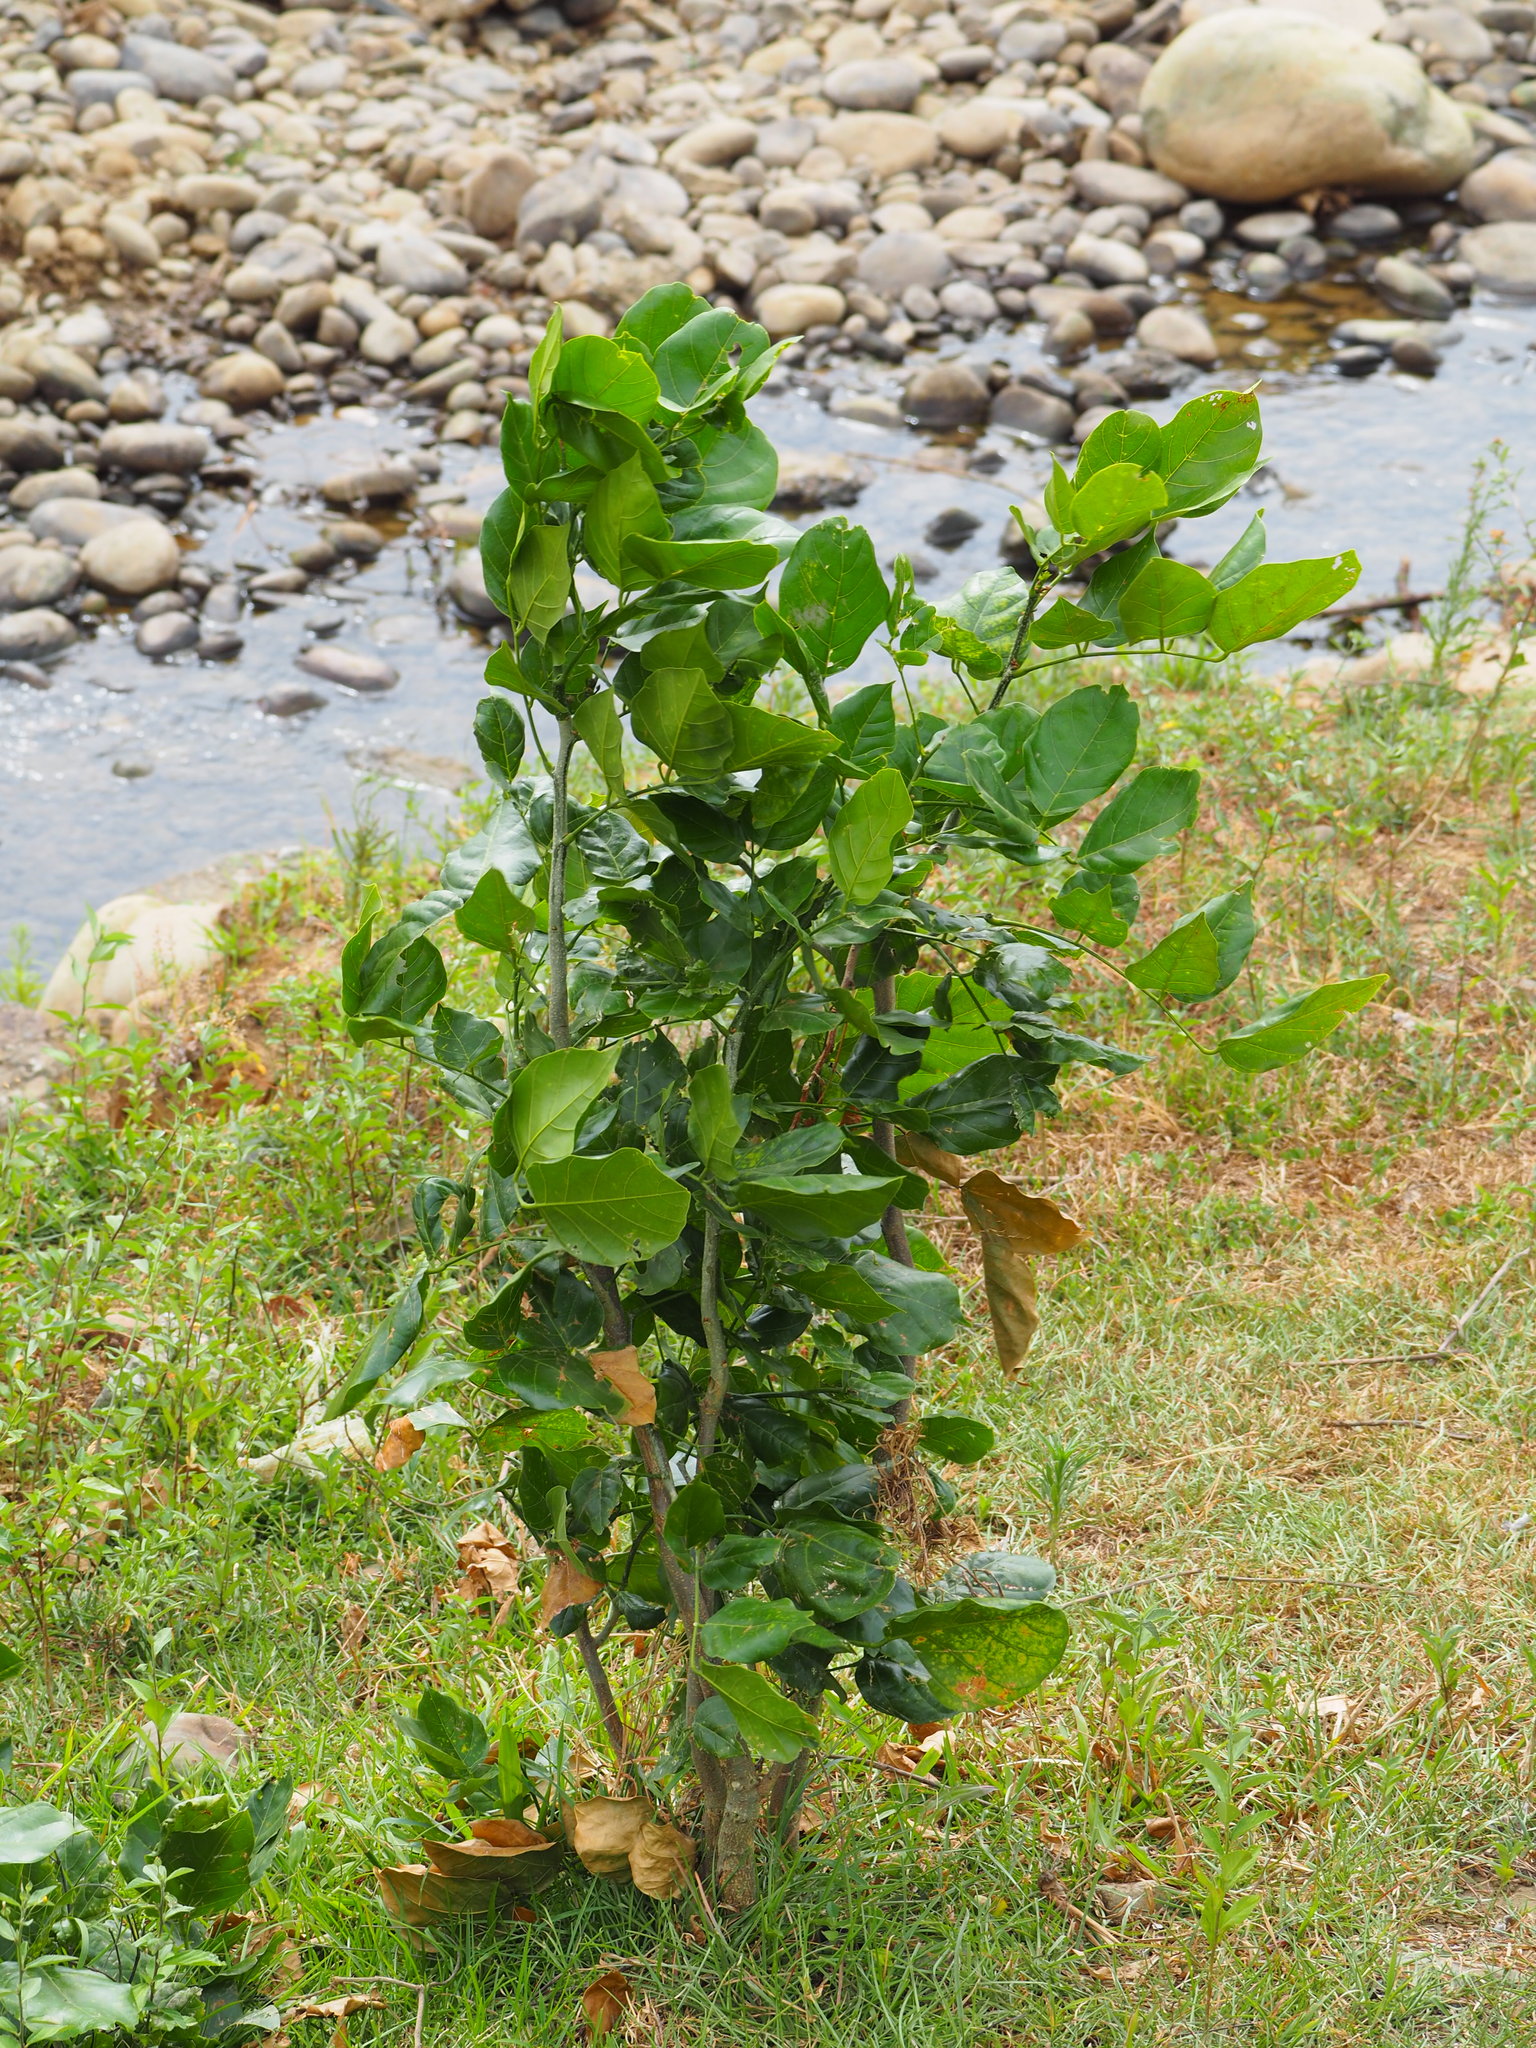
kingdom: Plantae
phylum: Tracheophyta
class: Magnoliopsida
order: Fabales
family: Fabaceae
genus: Pongamia
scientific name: Pongamia pinnata
